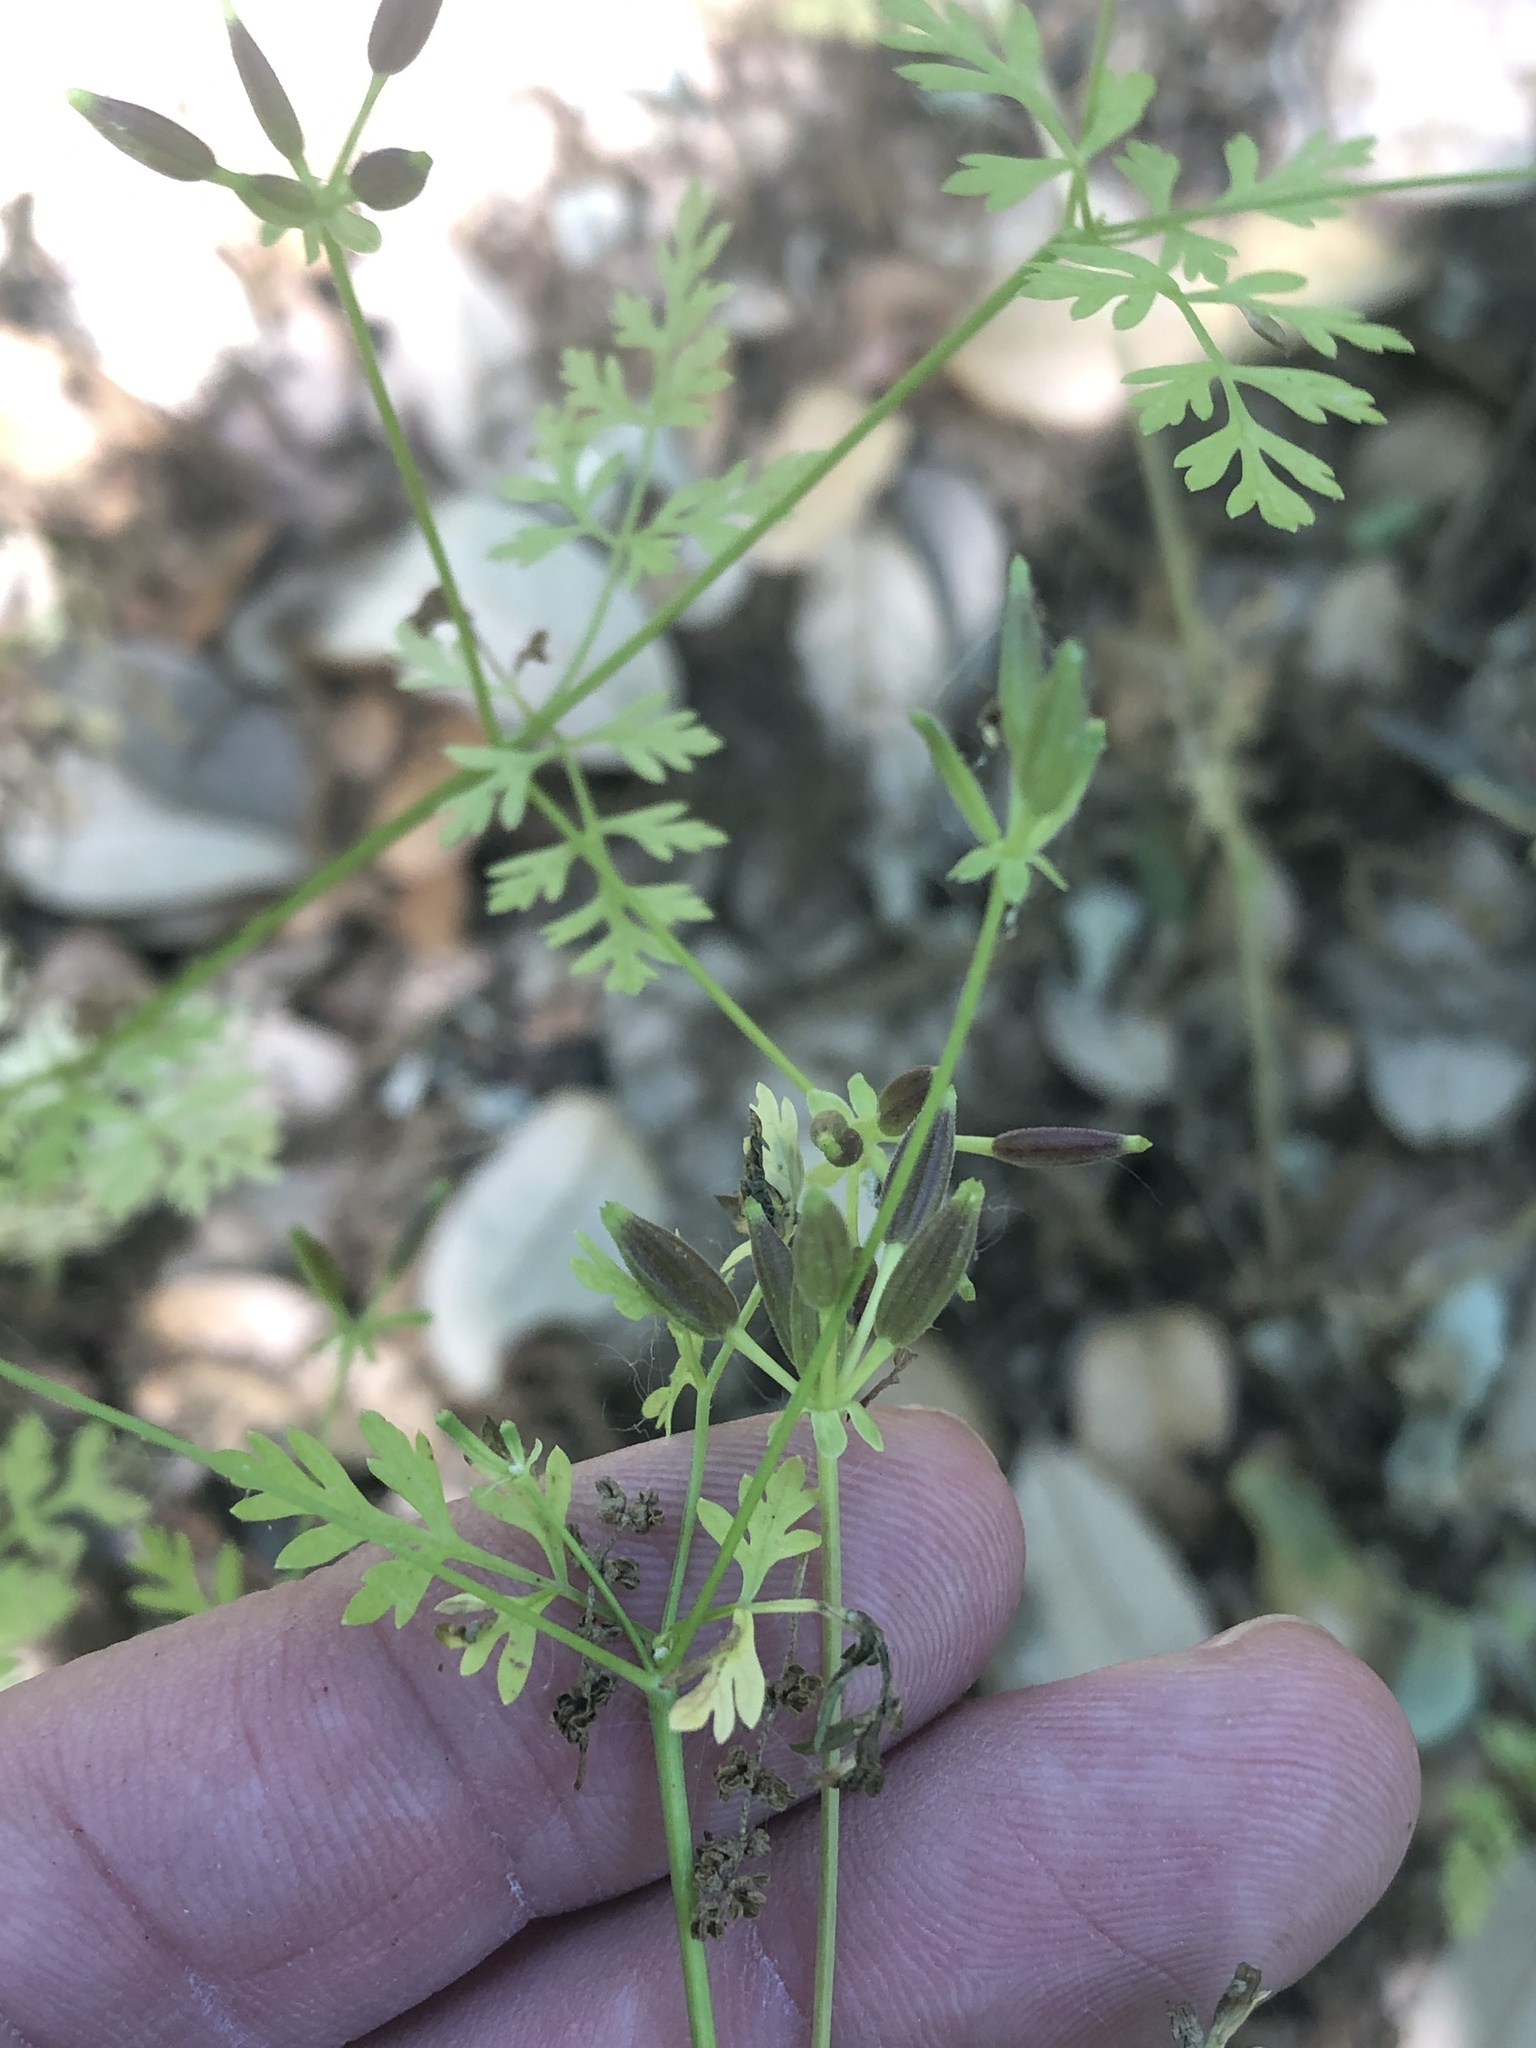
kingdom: Plantae
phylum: Tracheophyta
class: Magnoliopsida
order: Apiales
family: Apiaceae
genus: Chaerophyllum
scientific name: Chaerophyllum tainturieri
